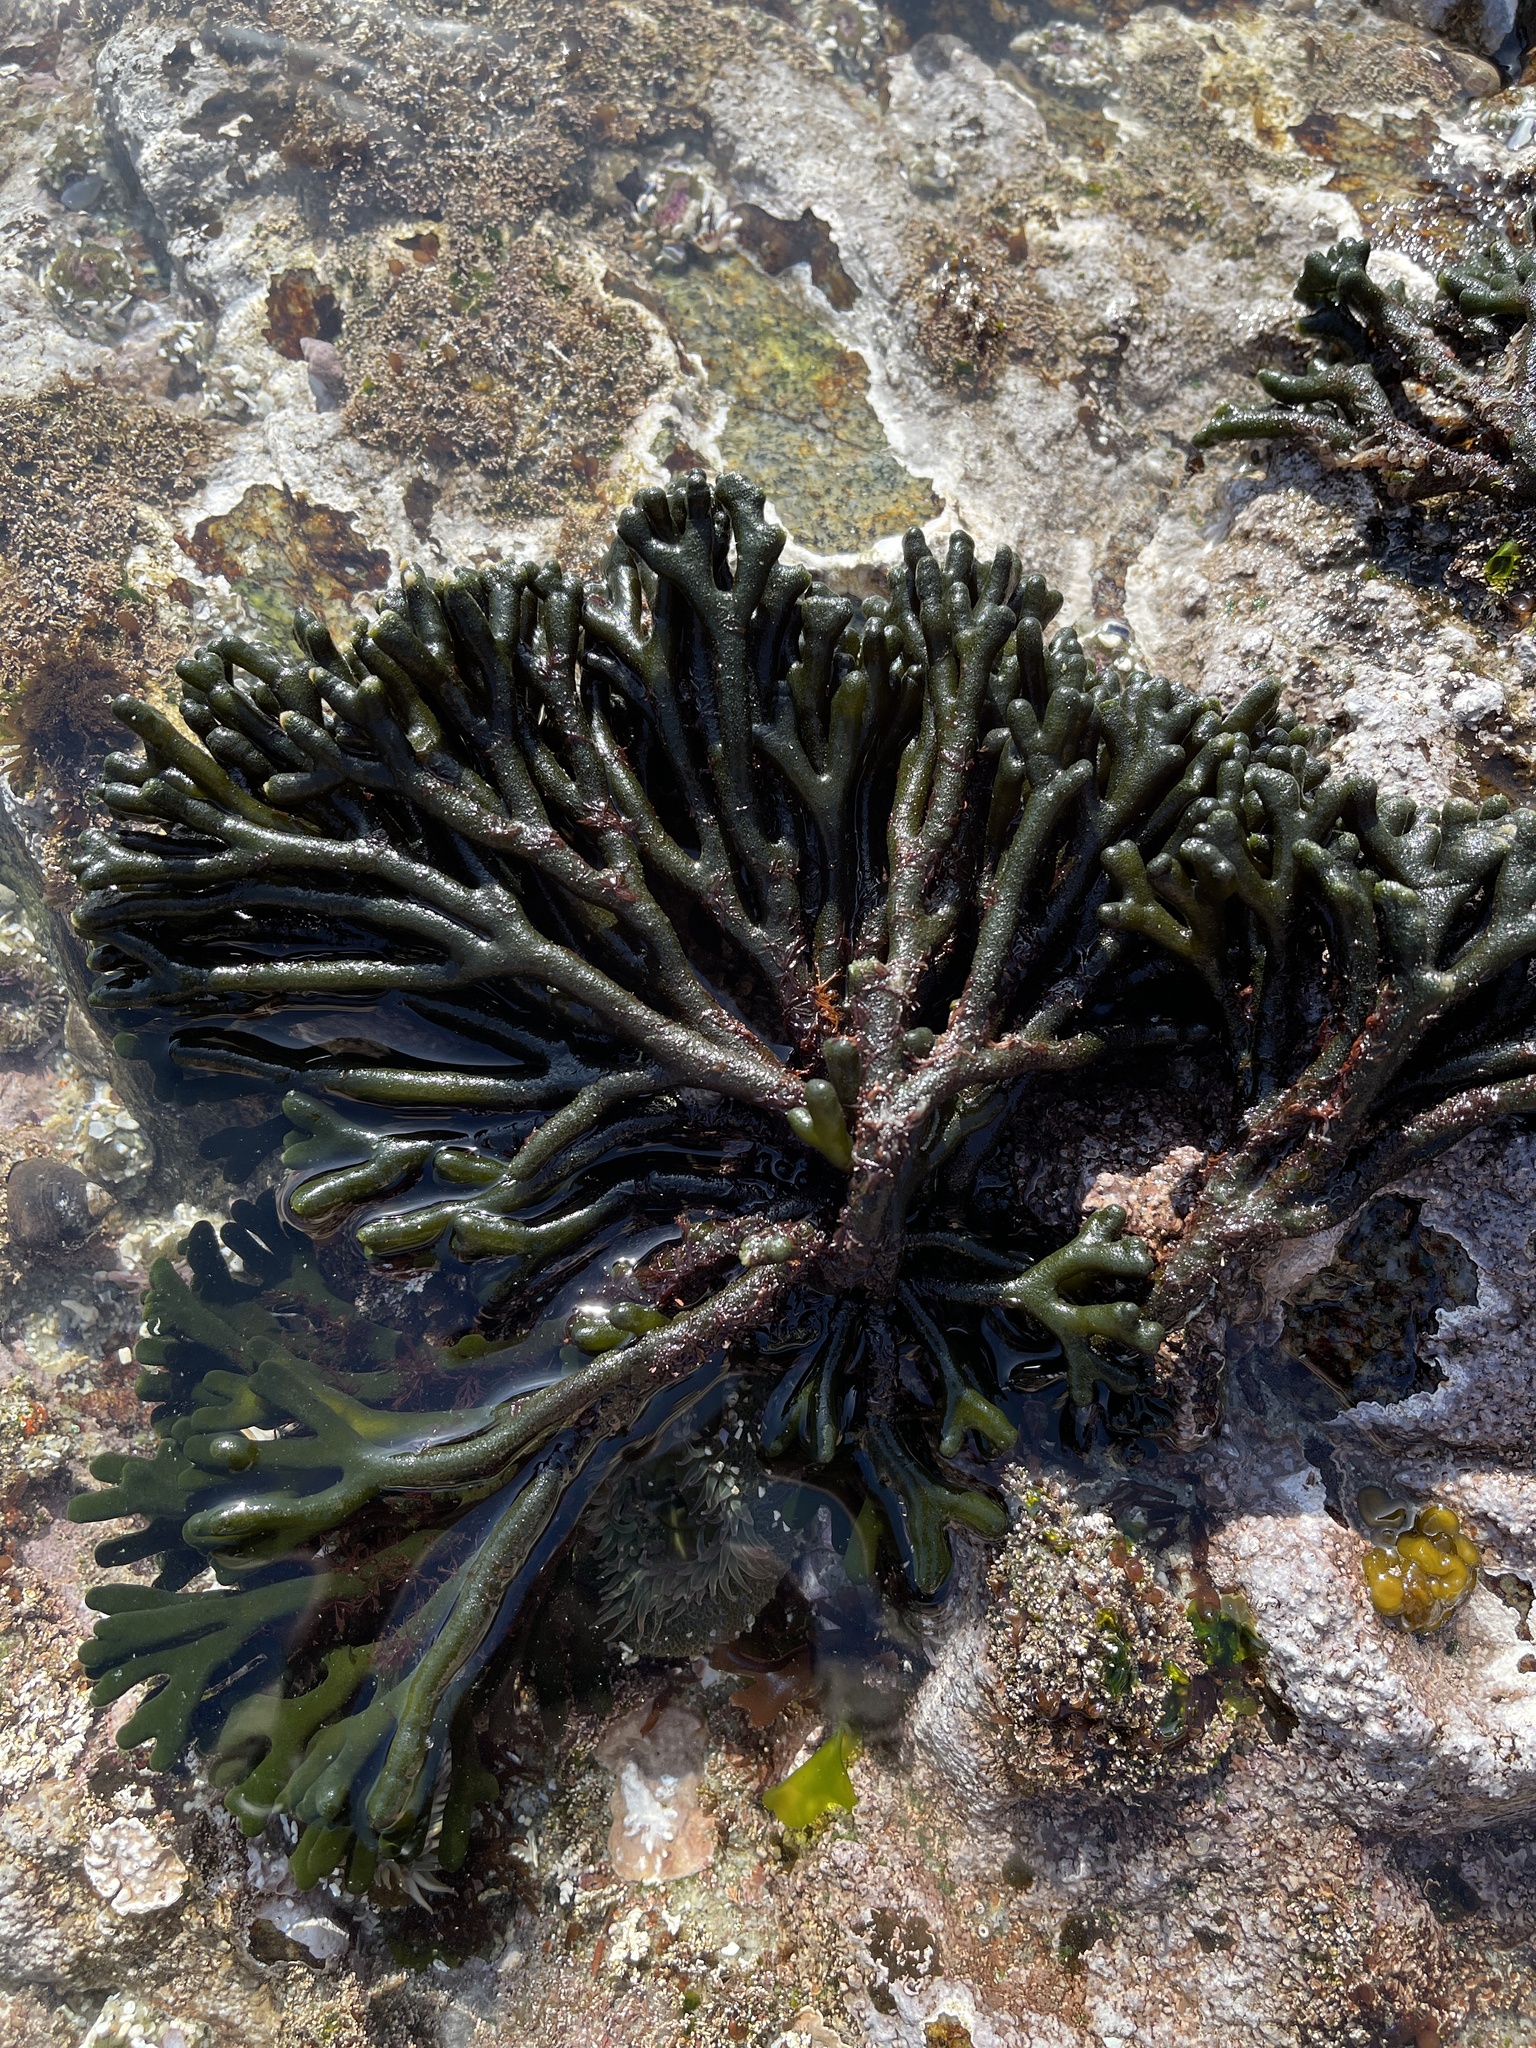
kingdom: Plantae
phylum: Chlorophyta
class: Ulvophyceae
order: Bryopsidales
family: Codiaceae
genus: Codium
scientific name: Codium fragile
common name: Dead man's fingers
